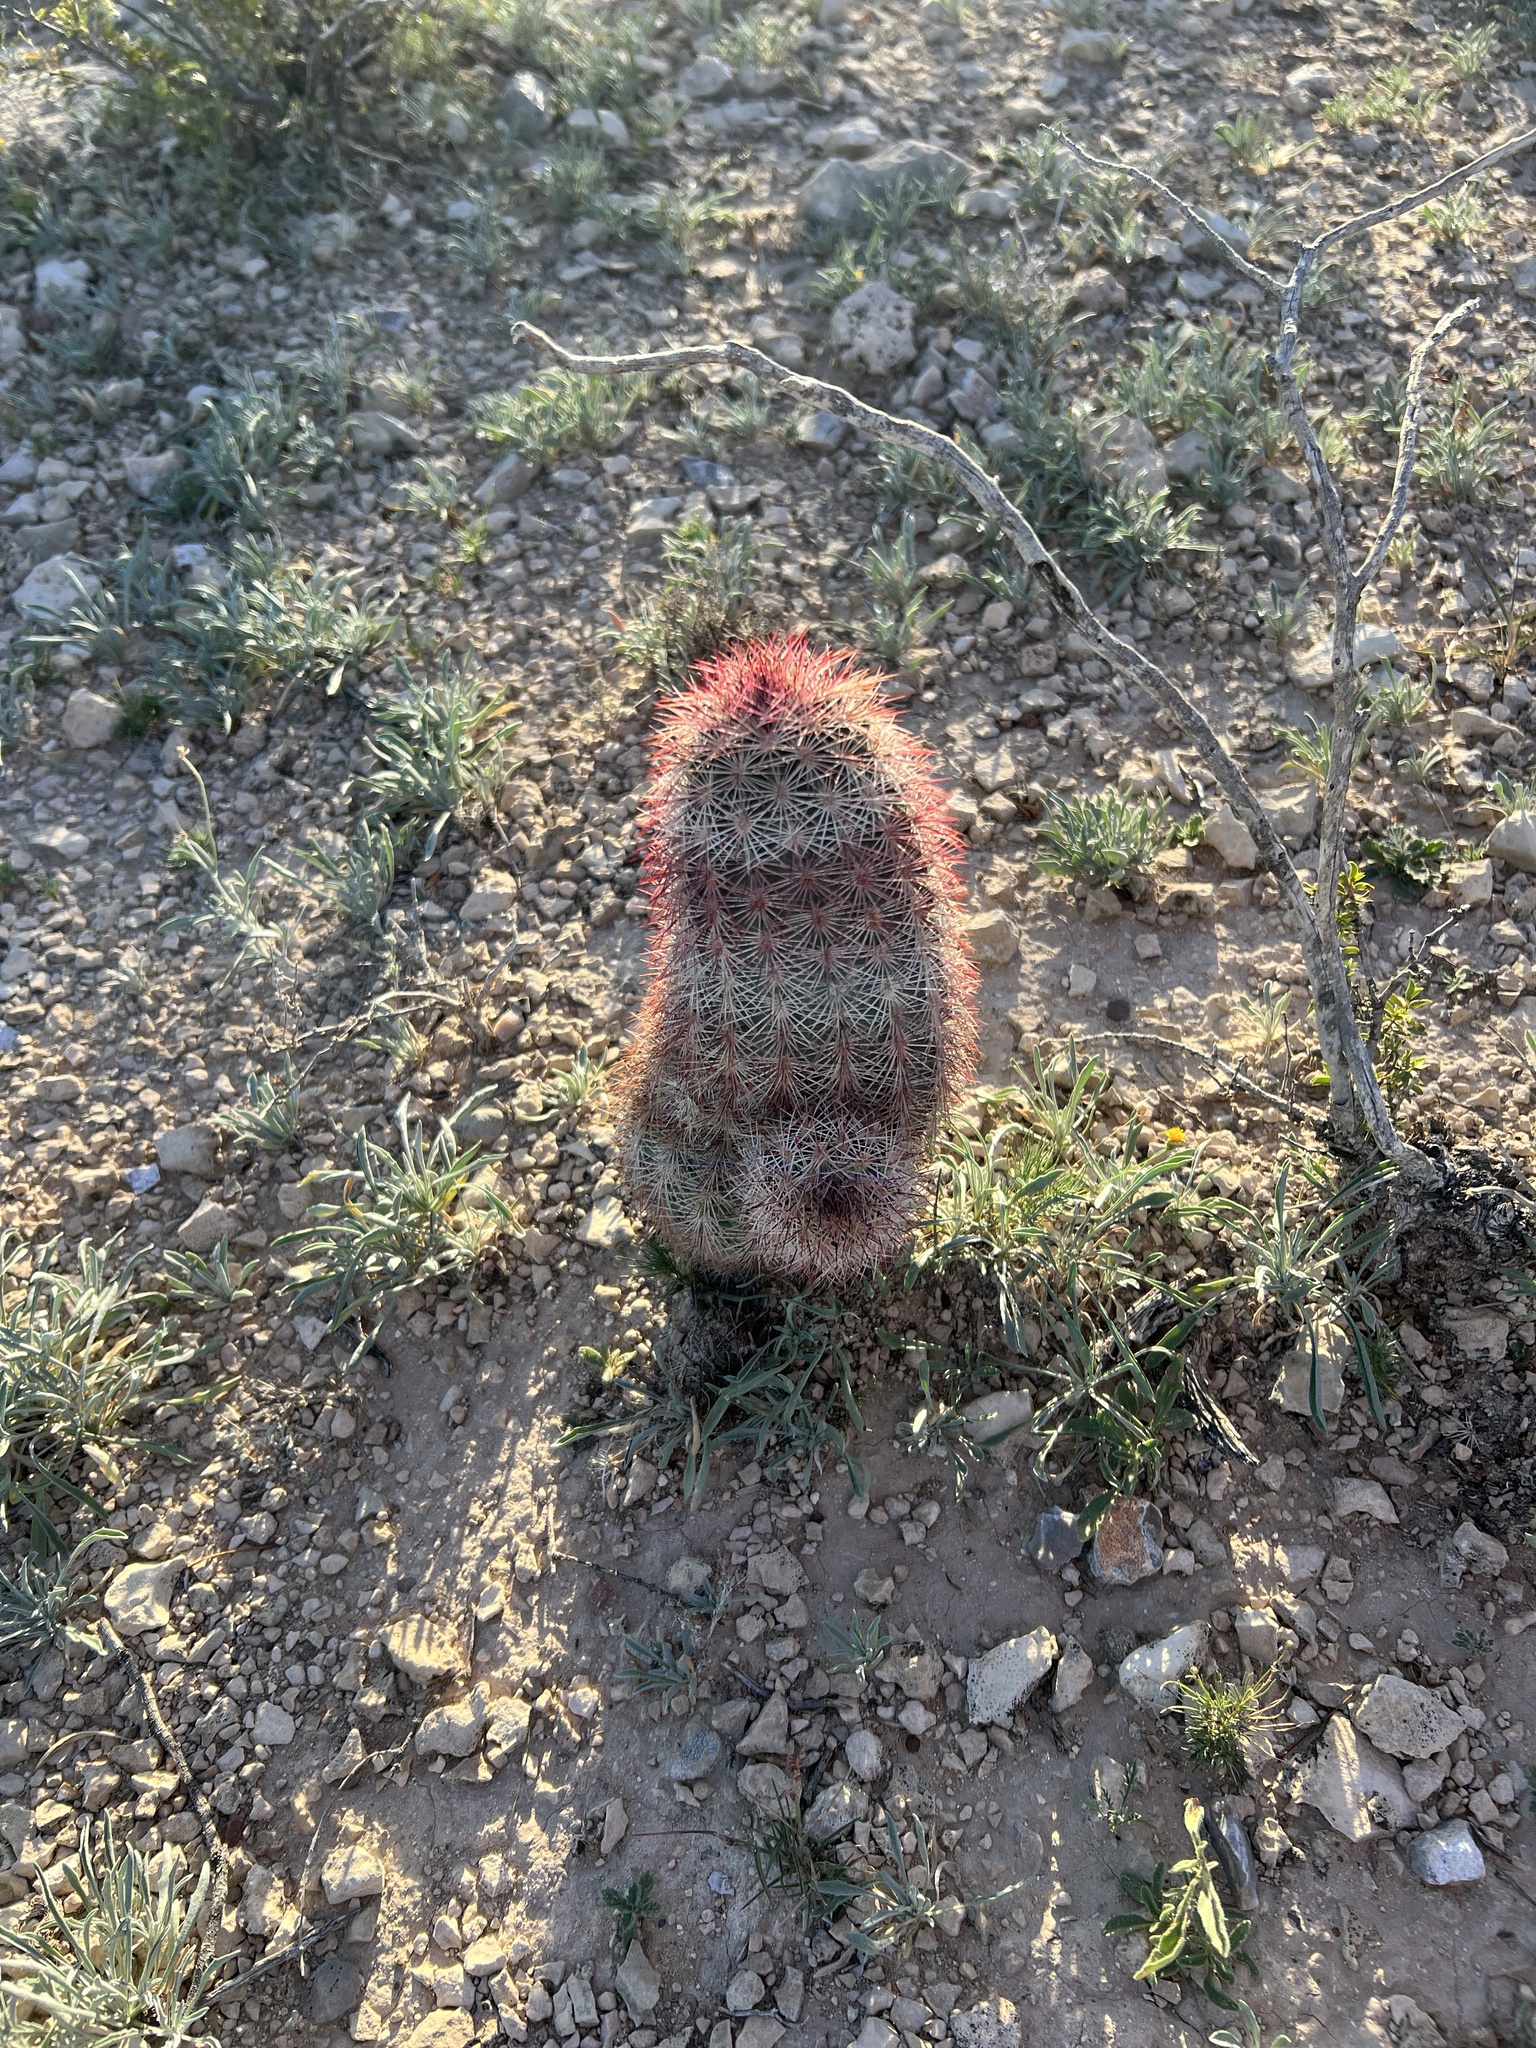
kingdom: Plantae
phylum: Tracheophyta
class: Magnoliopsida
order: Caryophyllales
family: Cactaceae
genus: Echinocereus
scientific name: Echinocereus dasyacanthus
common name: Spiny hedgehog cactus
